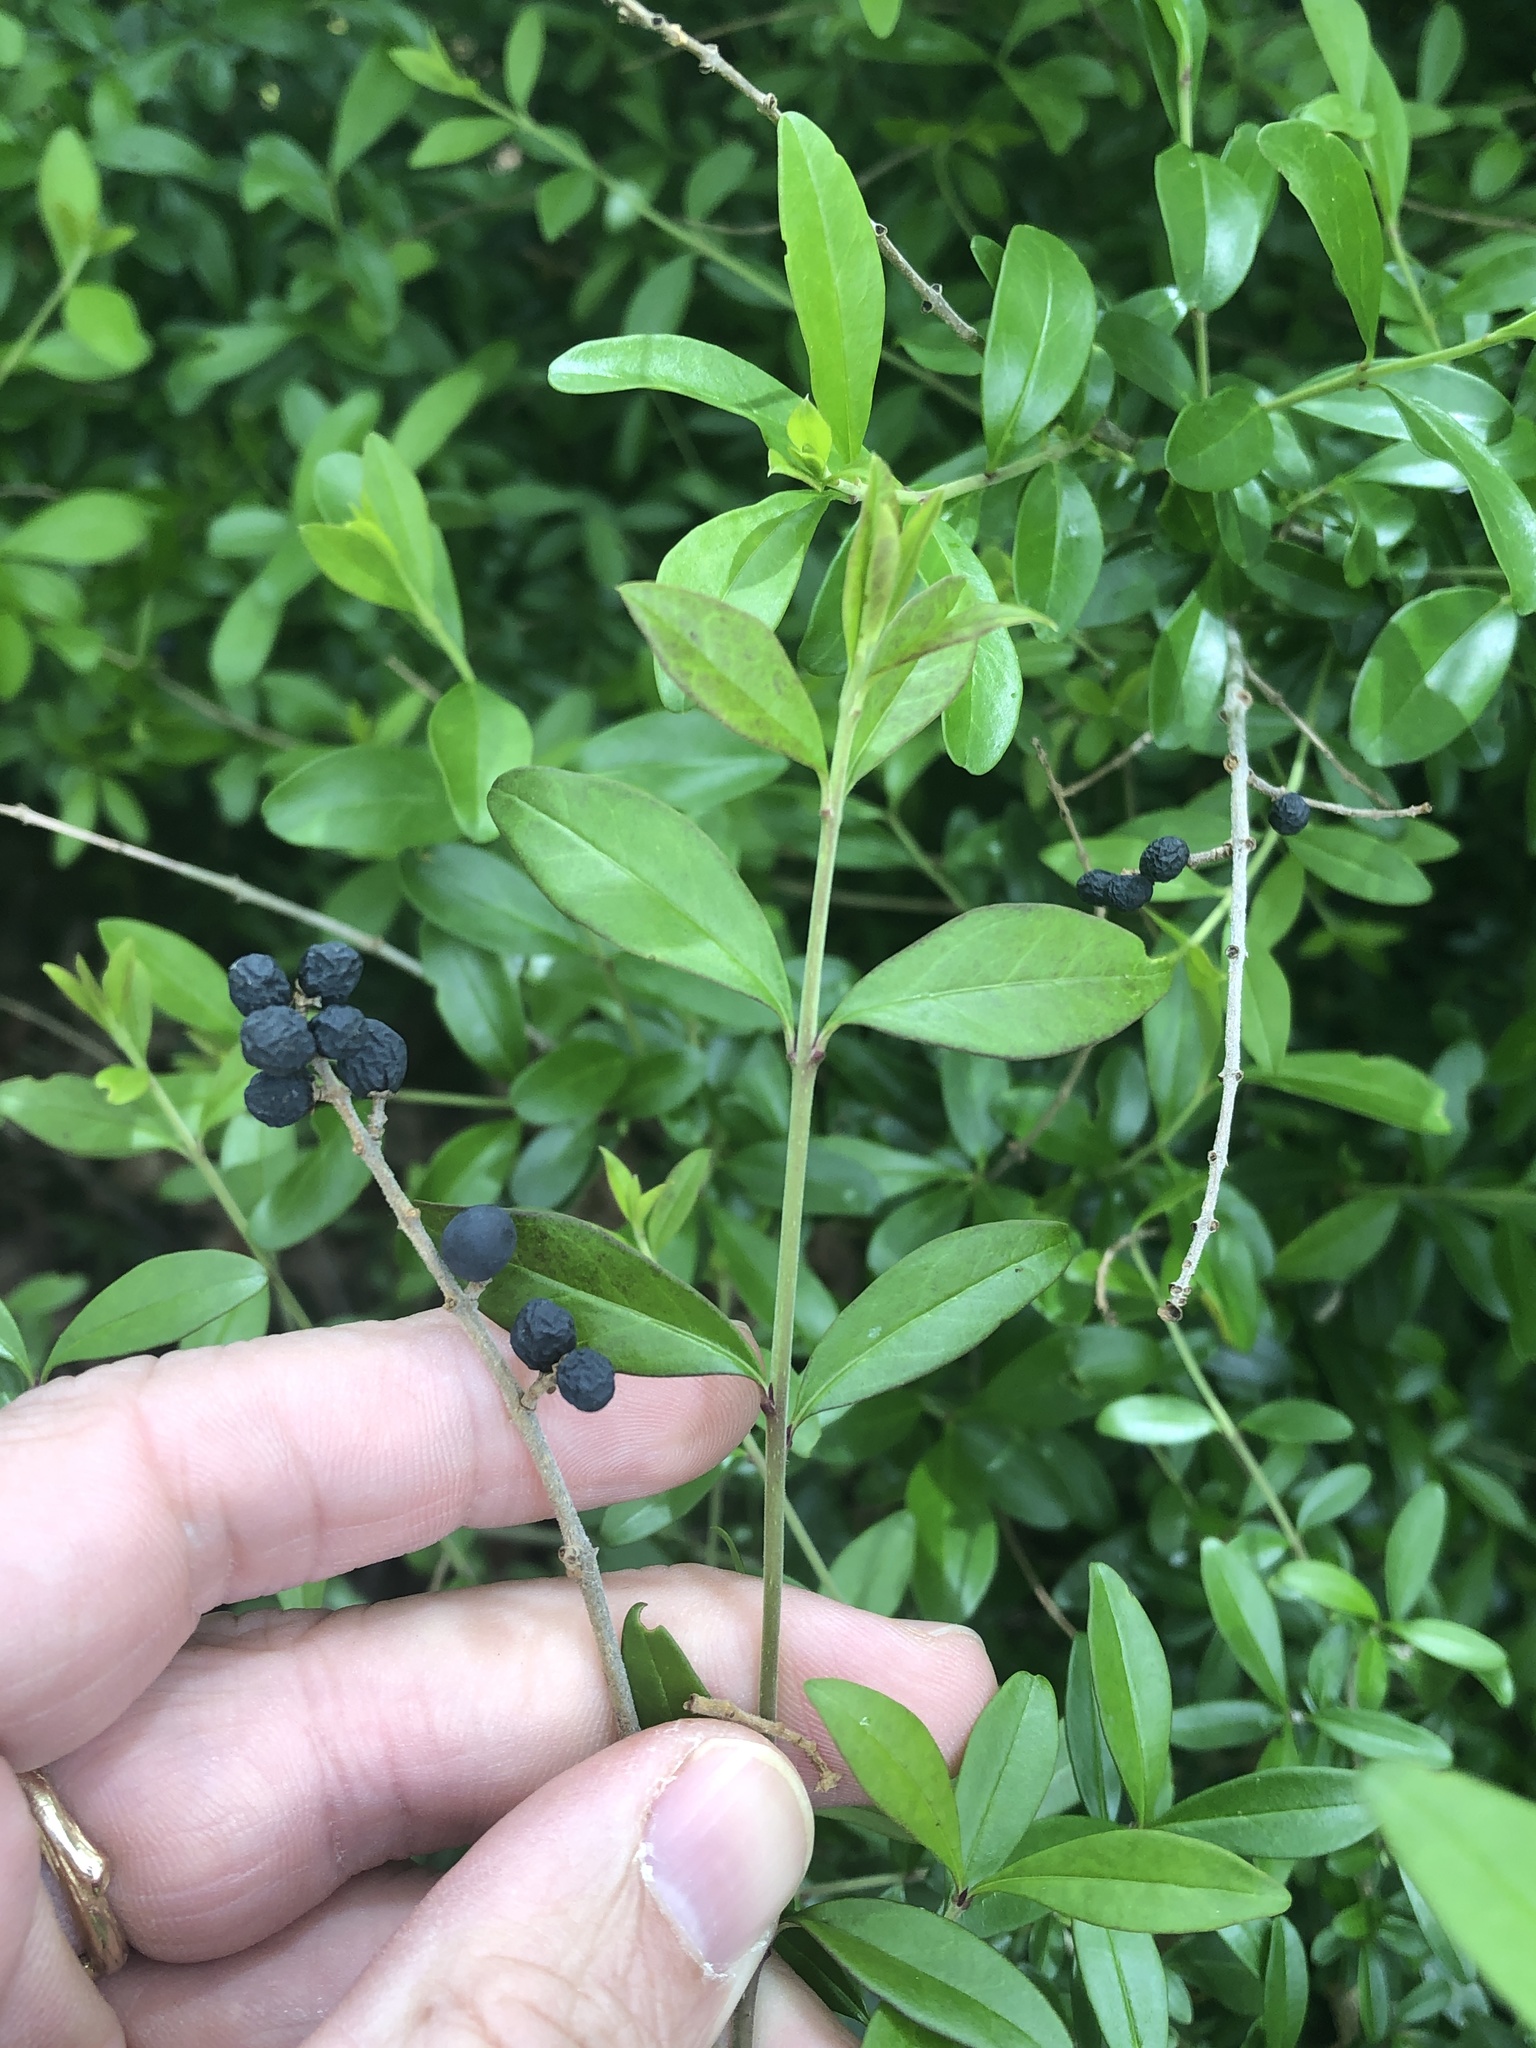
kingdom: Plantae
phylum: Tracheophyta
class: Magnoliopsida
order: Lamiales
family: Oleaceae
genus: Ligustrum
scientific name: Ligustrum quihoui
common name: Waxyleaf privet
